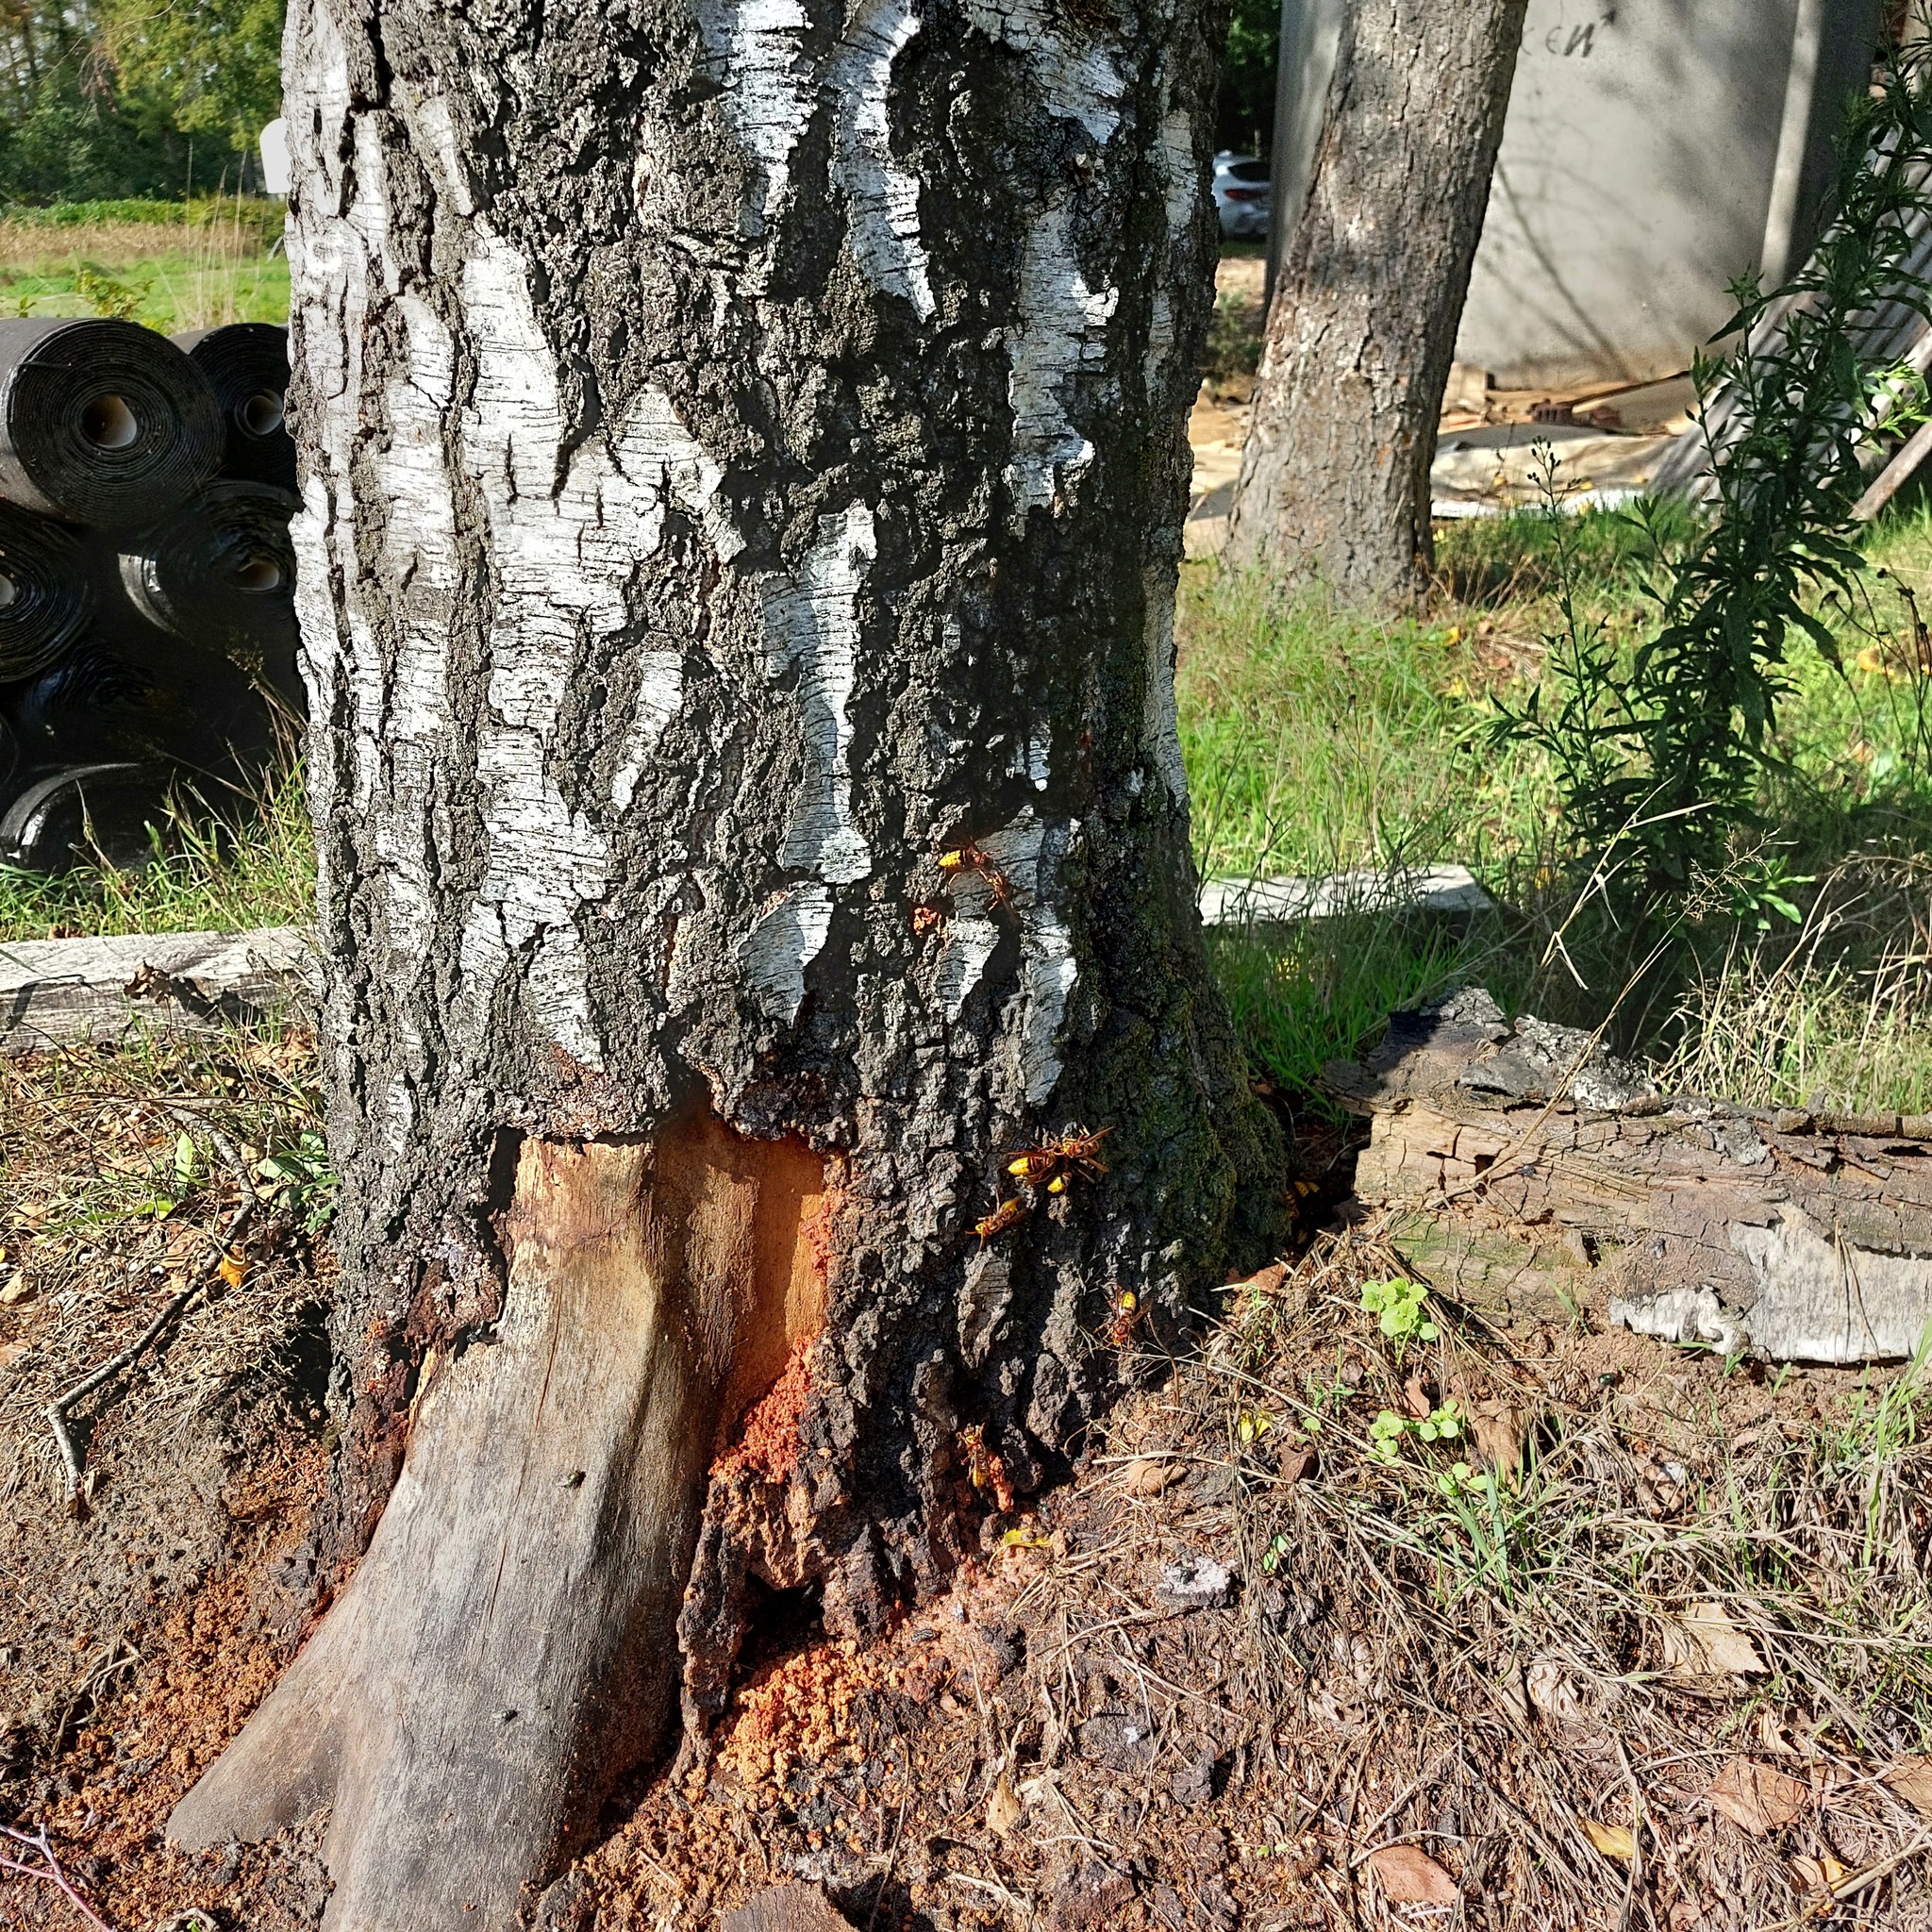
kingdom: Animalia
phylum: Arthropoda
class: Insecta
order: Hymenoptera
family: Vespidae
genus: Vespa
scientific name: Vespa crabro
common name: Hornet
